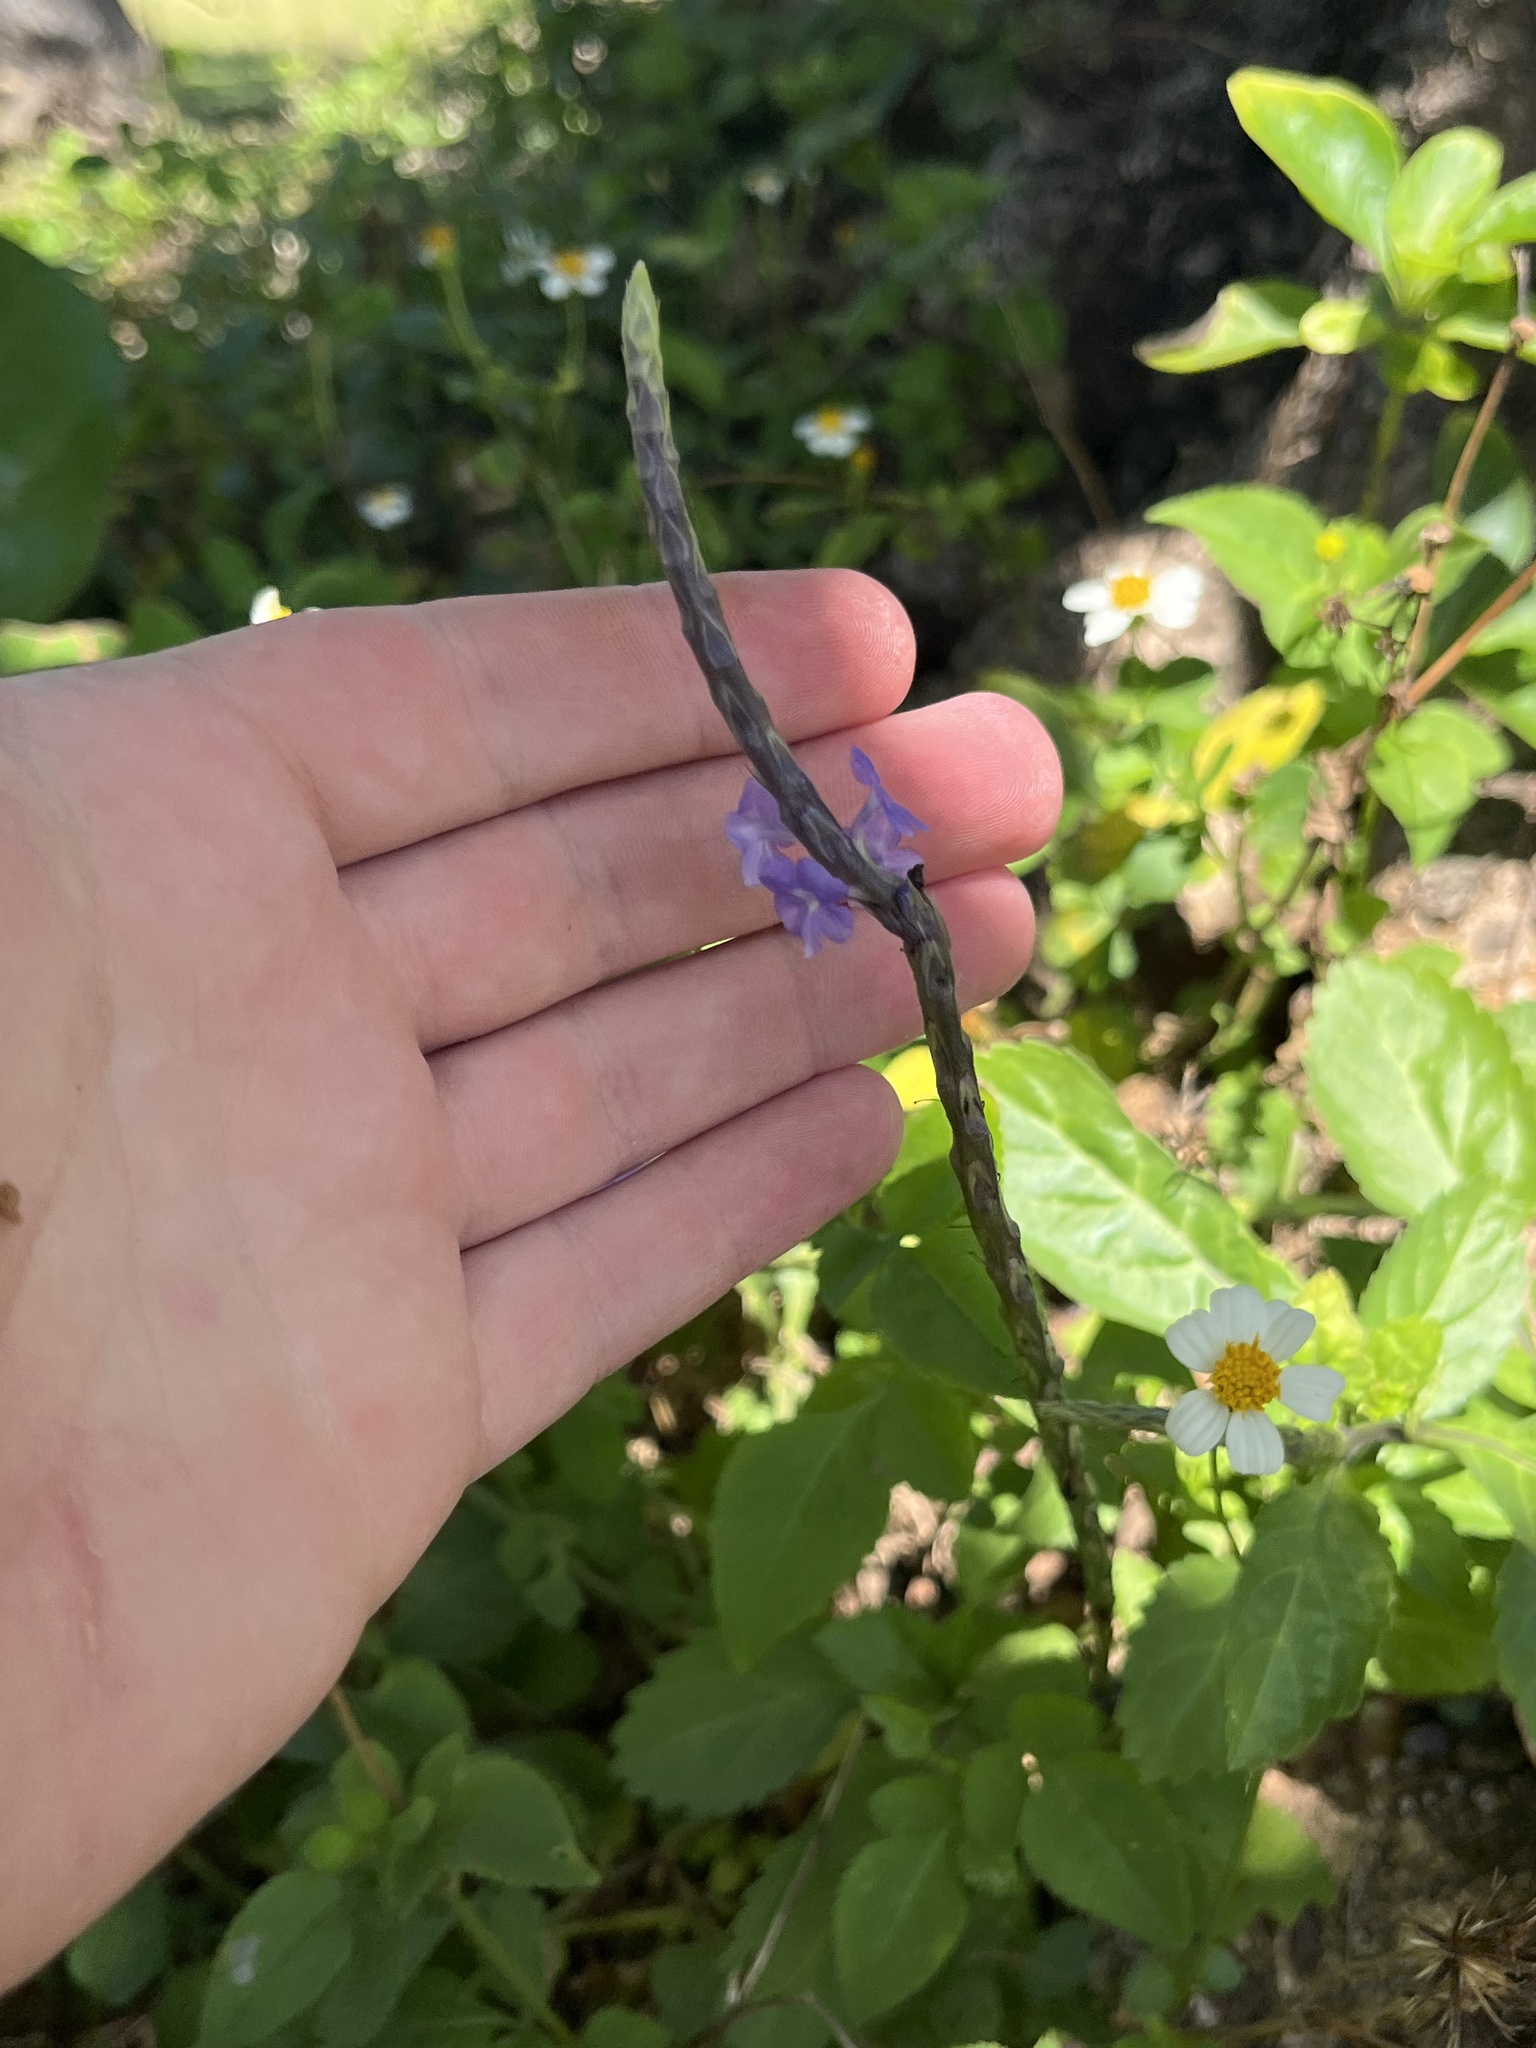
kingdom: Plantae
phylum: Tracheophyta
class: Magnoliopsida
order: Lamiales
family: Verbenaceae
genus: Stachytarpheta
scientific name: Stachytarpheta jamaicensis
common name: Light-blue snakeweed
